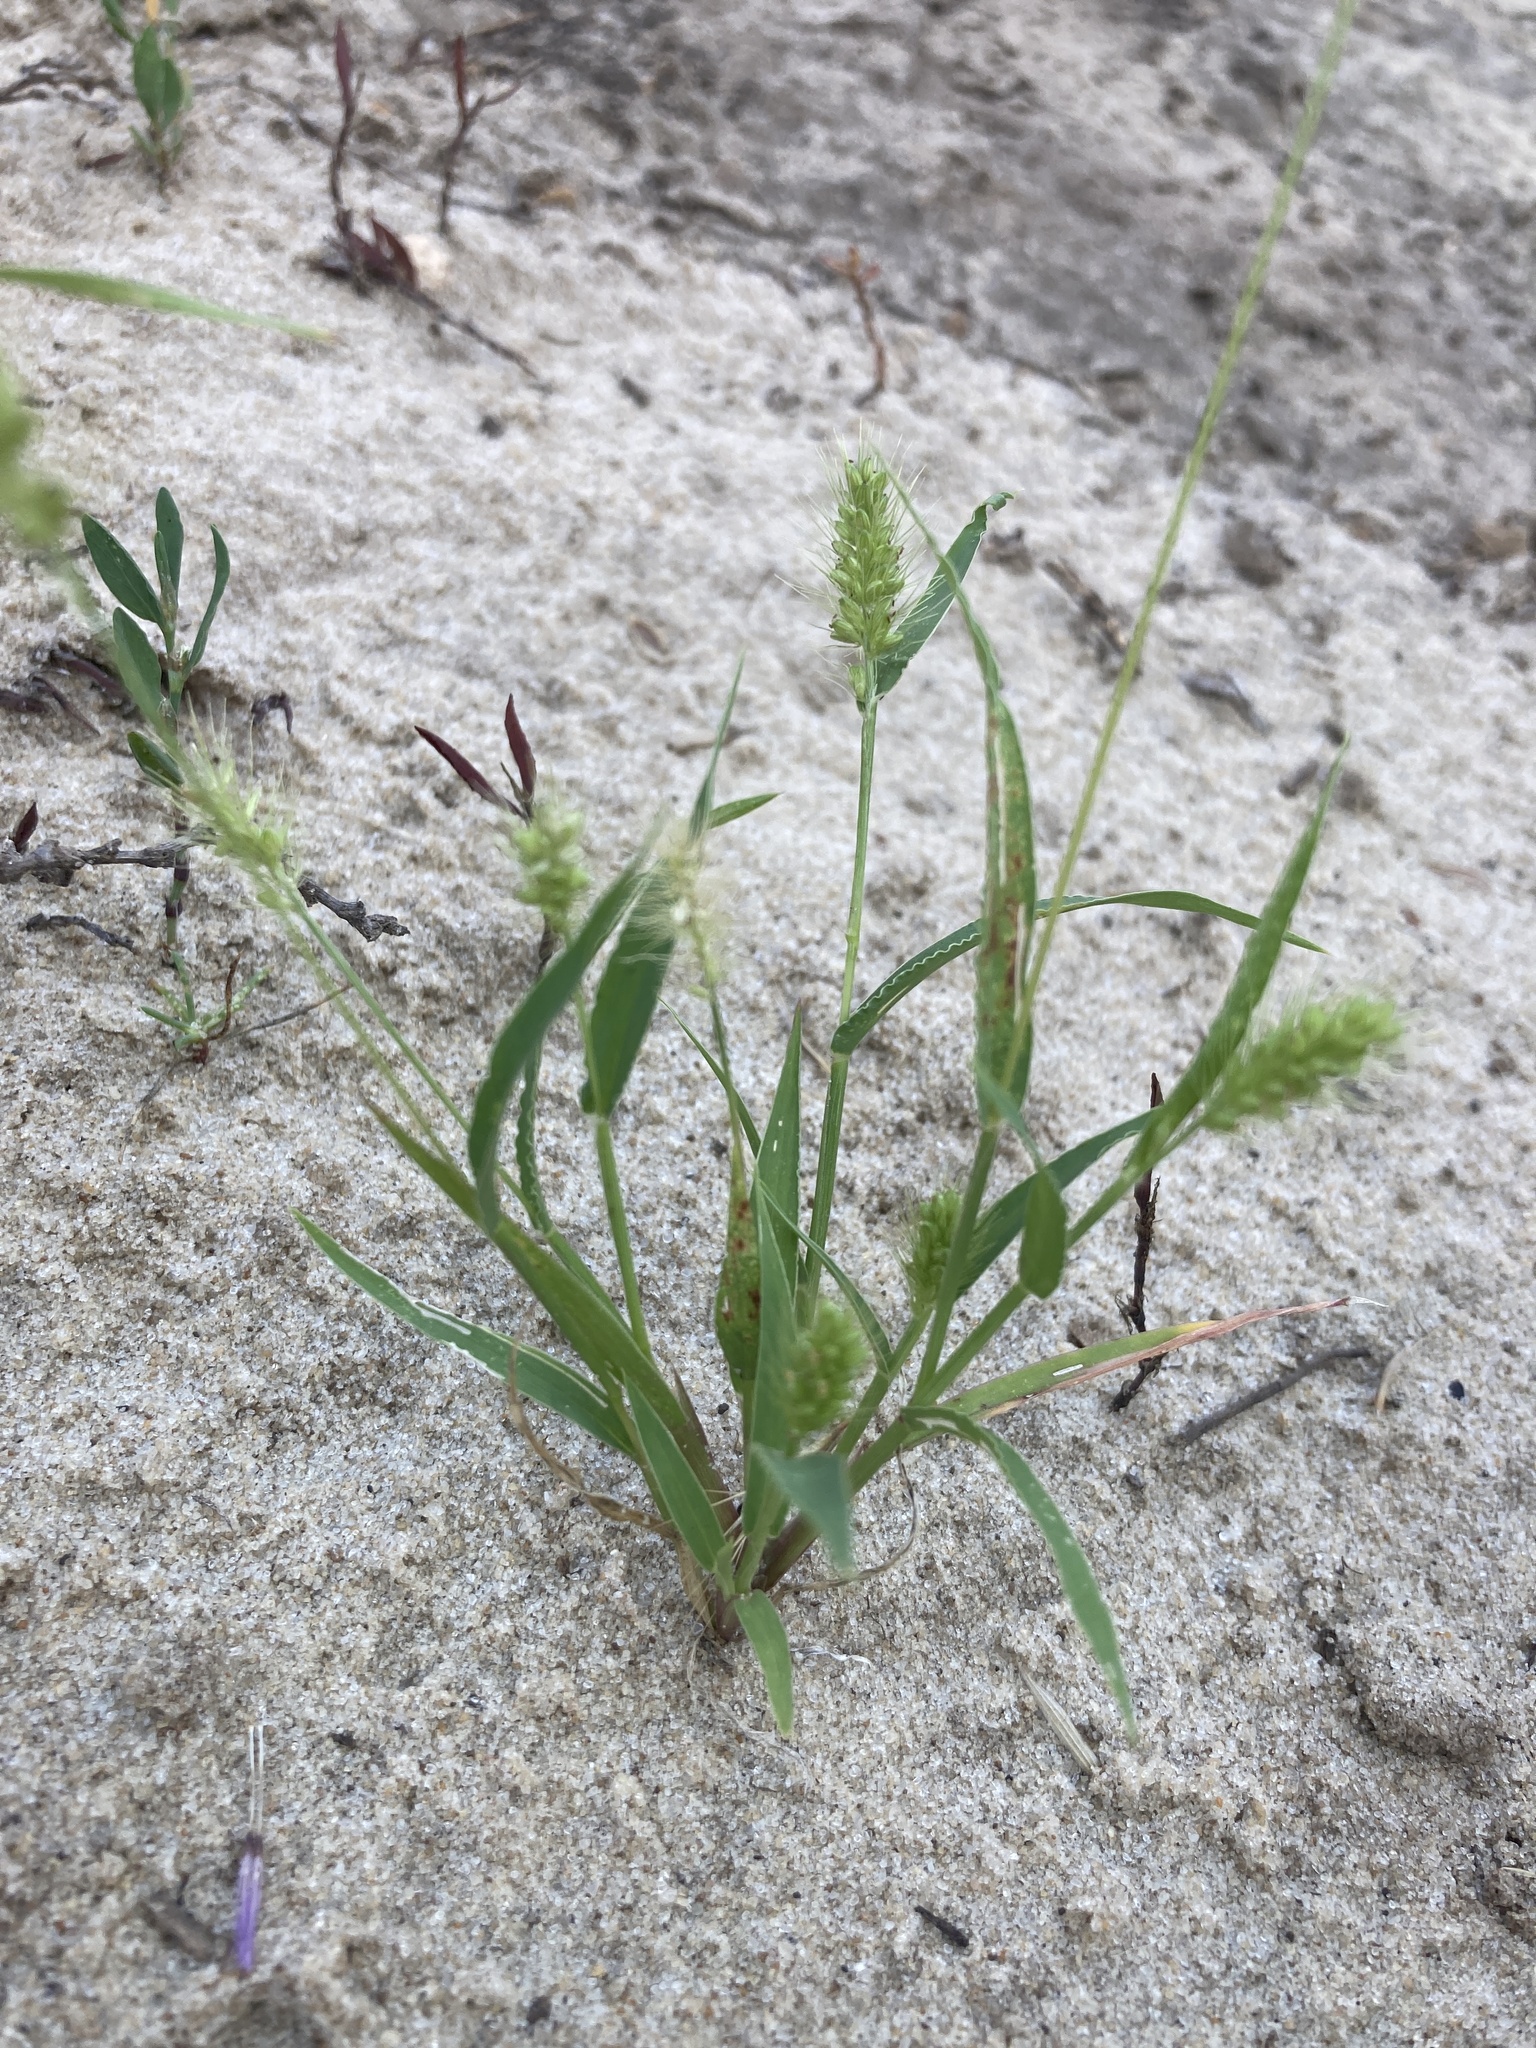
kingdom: Plantae
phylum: Tracheophyta
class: Liliopsida
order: Poales
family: Poaceae
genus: Setaria
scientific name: Setaria viridis
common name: Green bristlegrass
